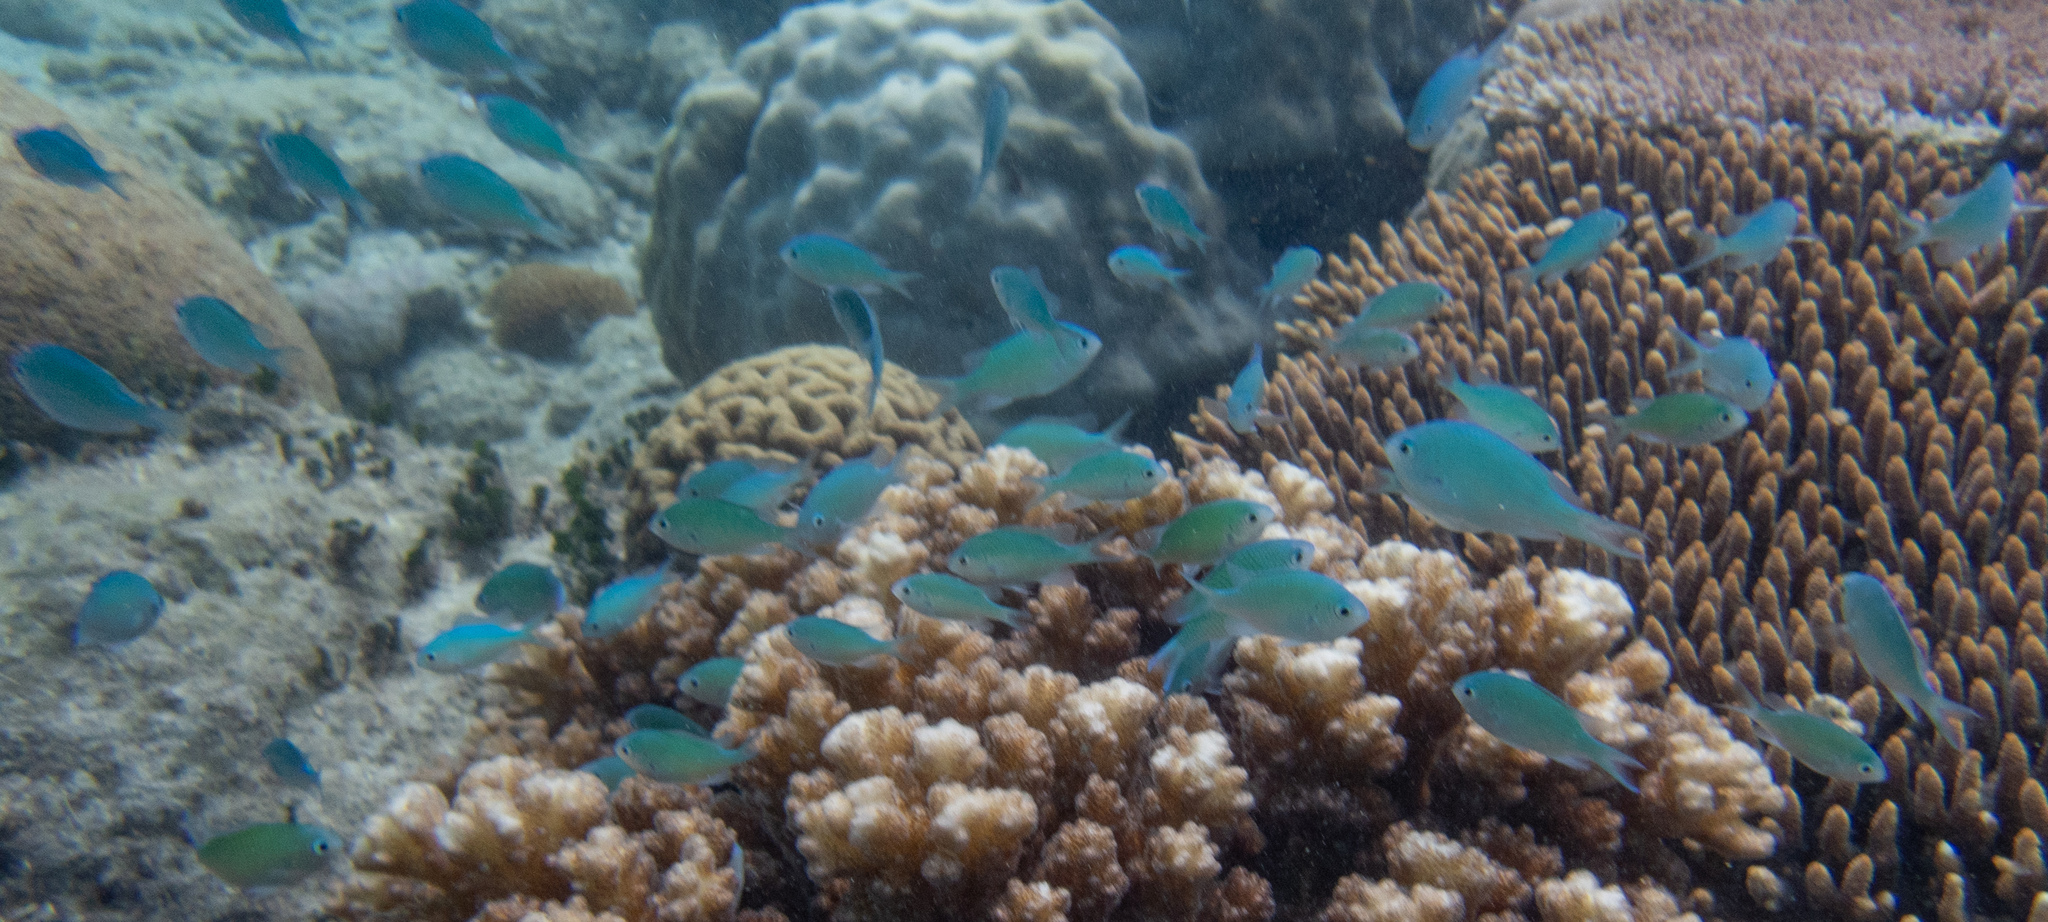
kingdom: Animalia
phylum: Chordata
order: Perciformes
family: Pomacentridae
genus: Chromis
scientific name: Chromis viridis
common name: Blue-green chromis
